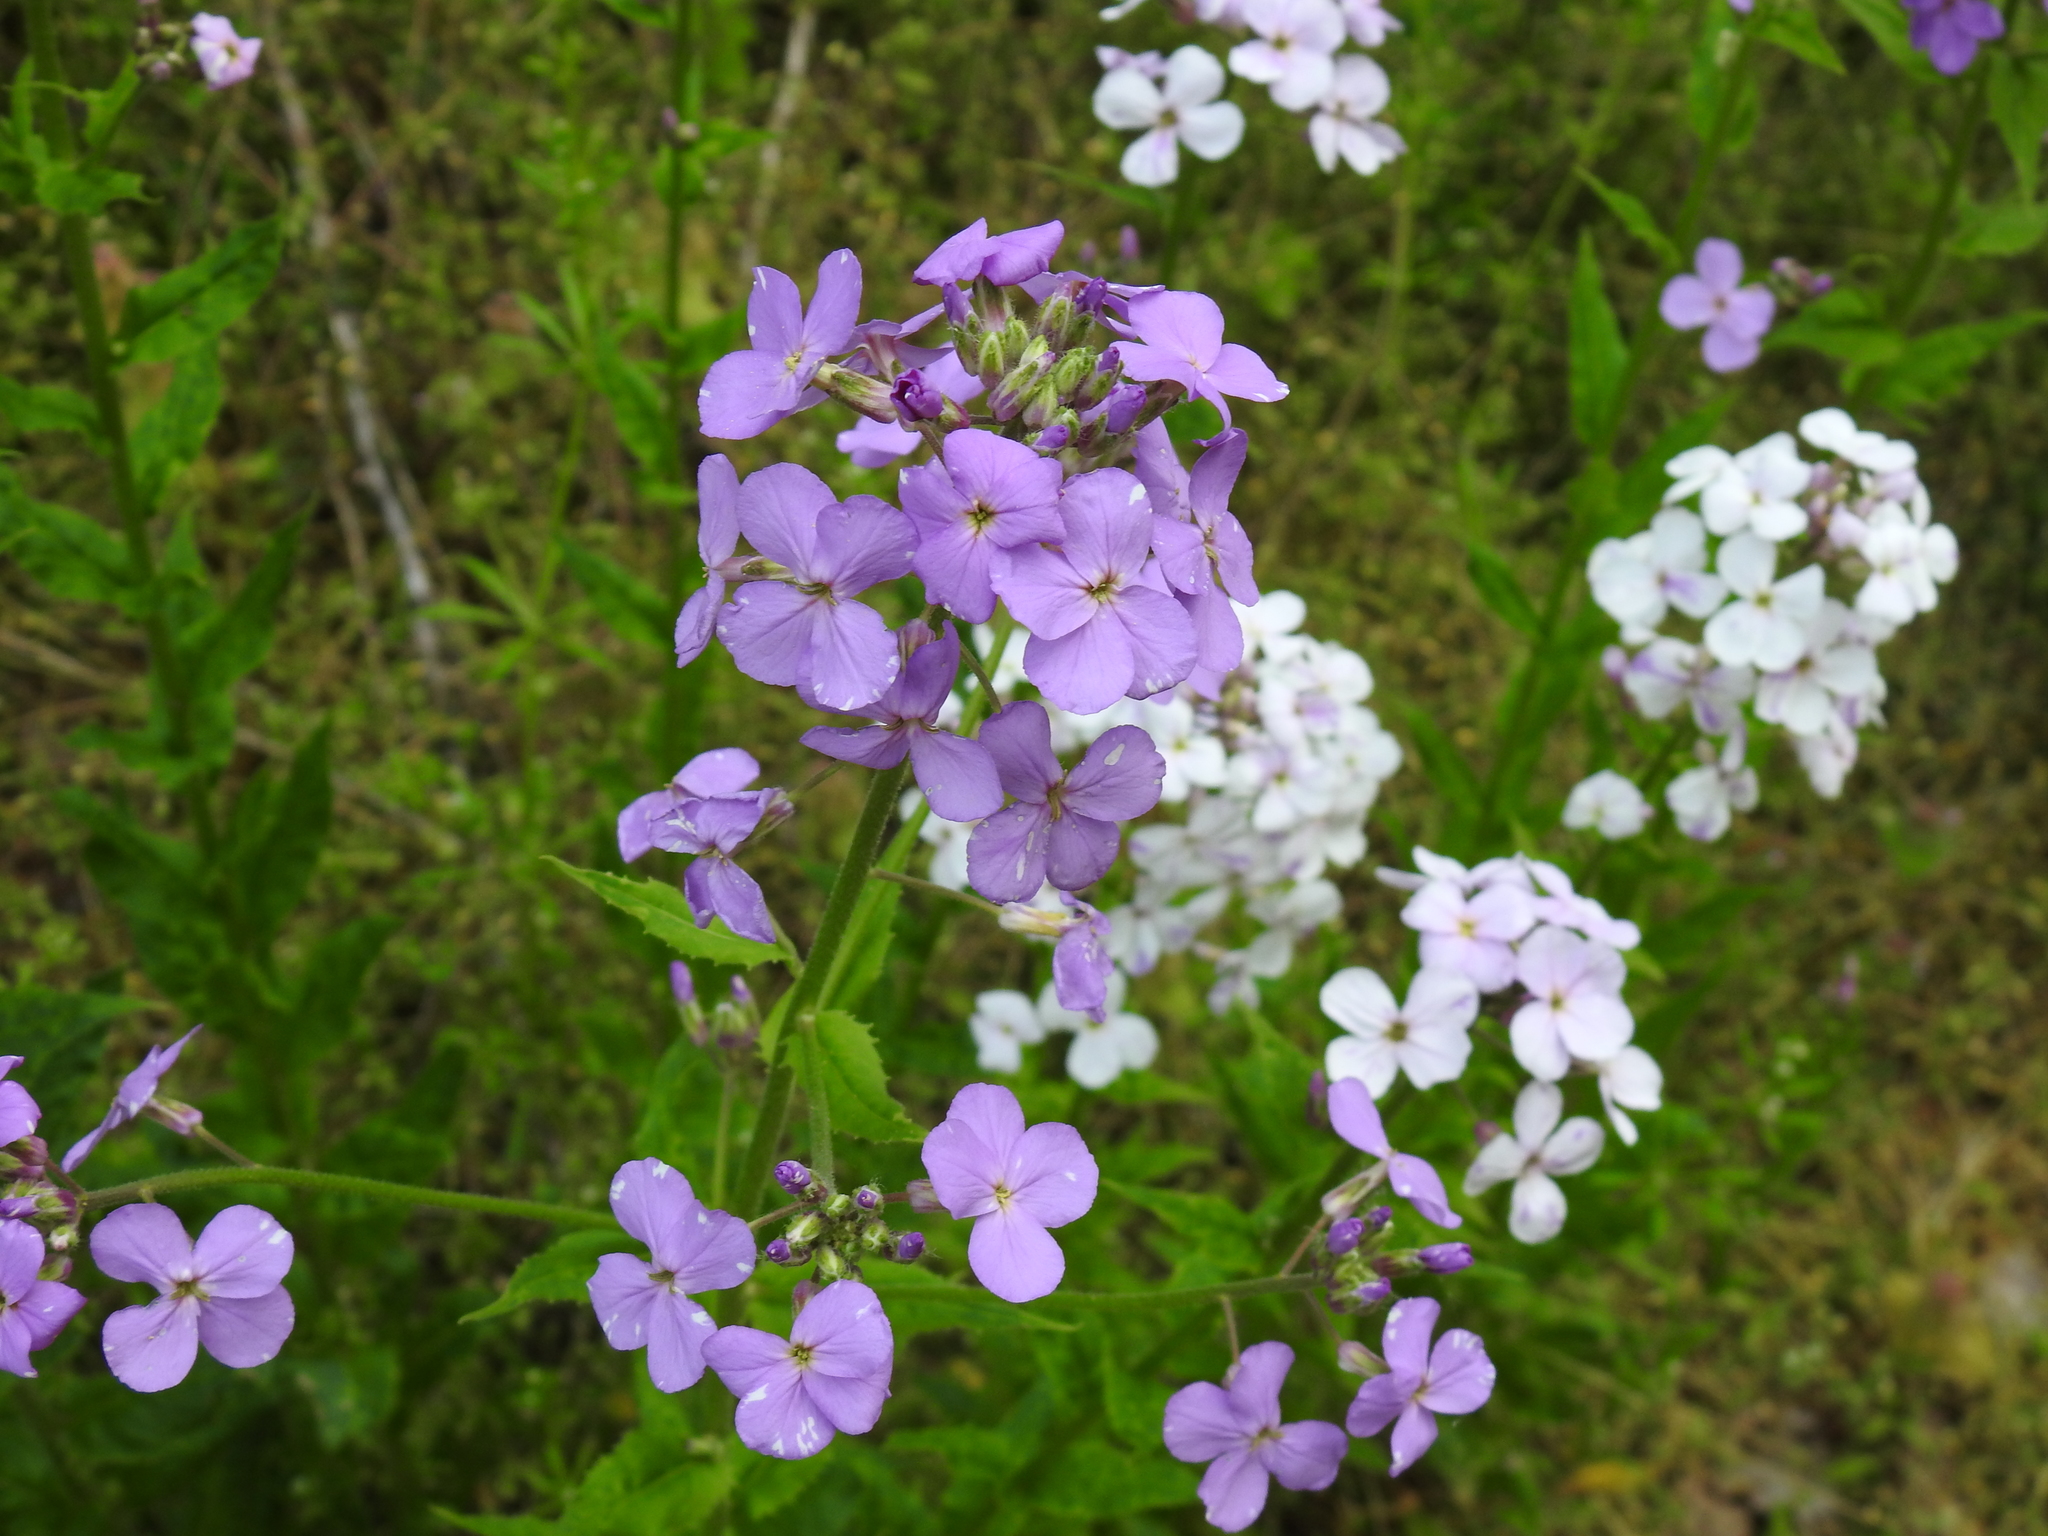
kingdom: Plantae
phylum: Tracheophyta
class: Magnoliopsida
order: Brassicales
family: Brassicaceae
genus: Hesperis
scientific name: Hesperis matronalis
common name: Dame's-violet
